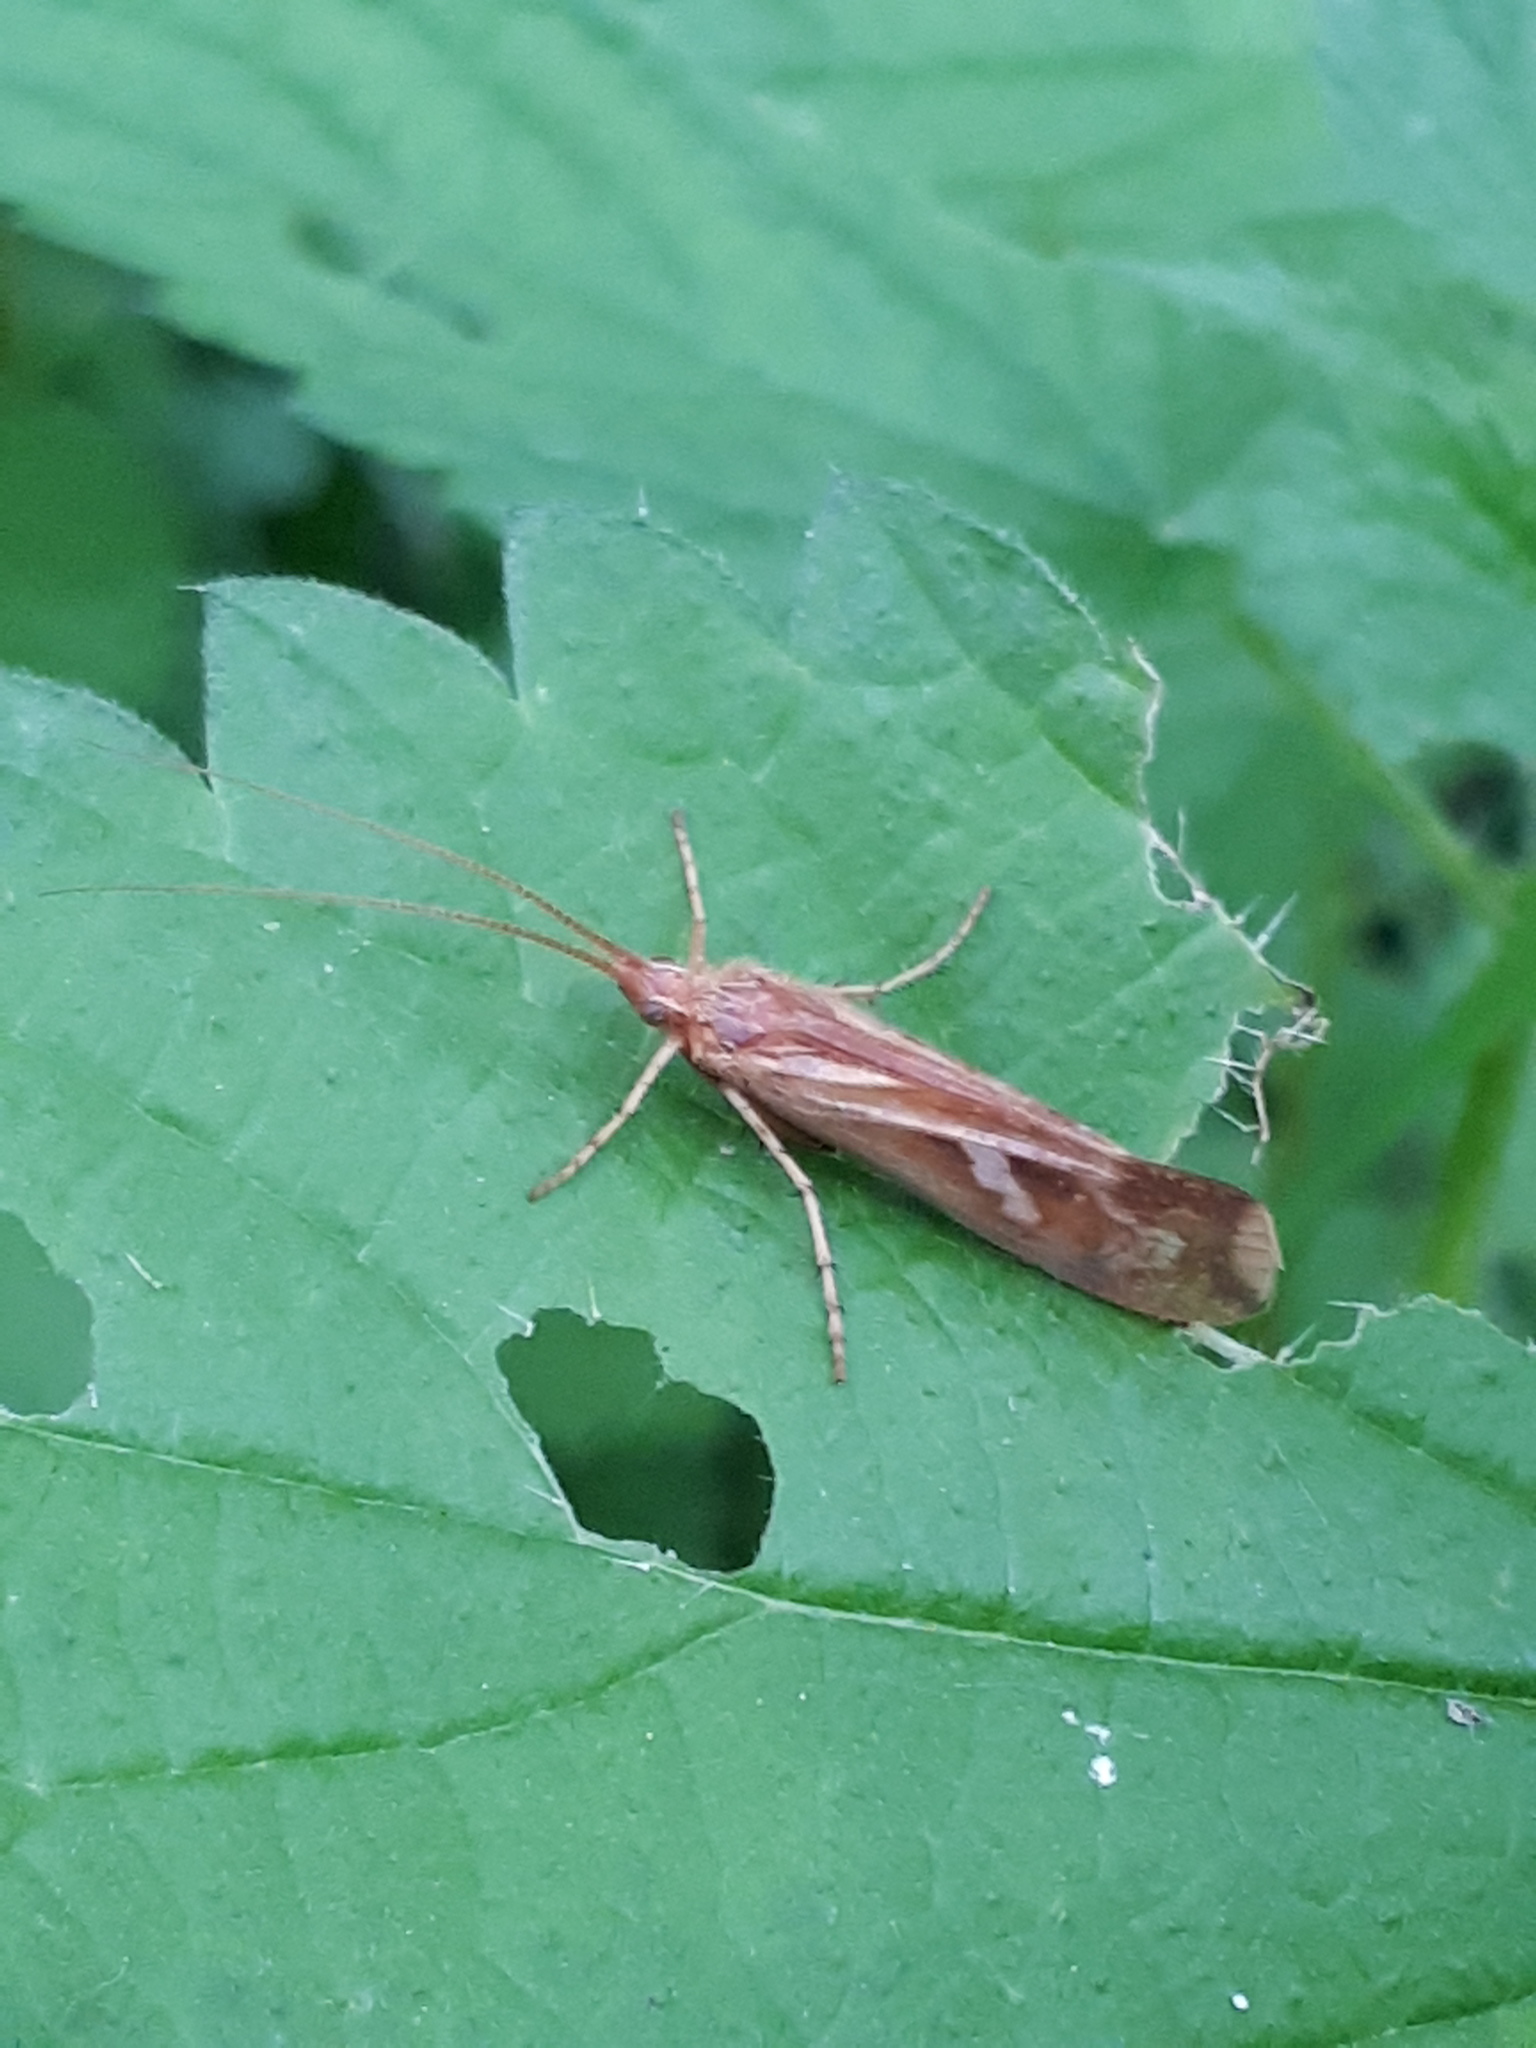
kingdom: Animalia
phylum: Arthropoda
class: Insecta
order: Trichoptera
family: Limnephilidae
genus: Limnephilus
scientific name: Limnephilus lunatus
